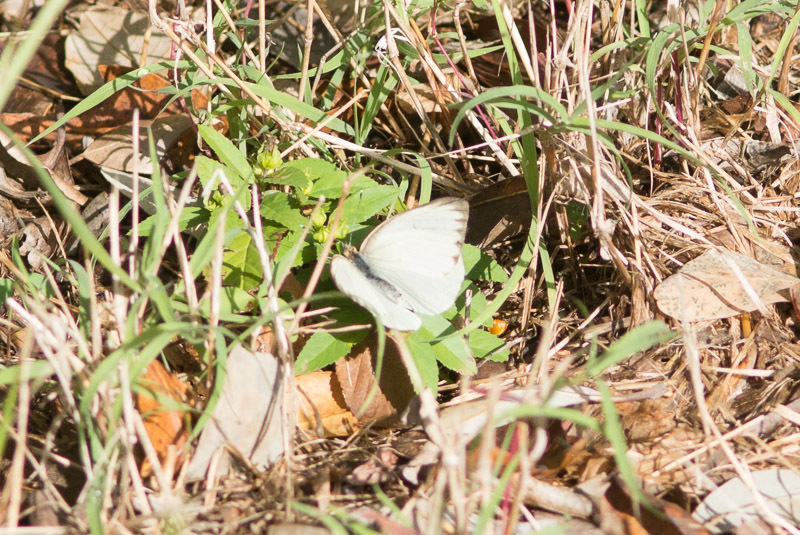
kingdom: Animalia
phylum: Arthropoda
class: Insecta
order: Lepidoptera
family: Pieridae
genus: Ascia
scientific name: Ascia monuste
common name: Great southern white
